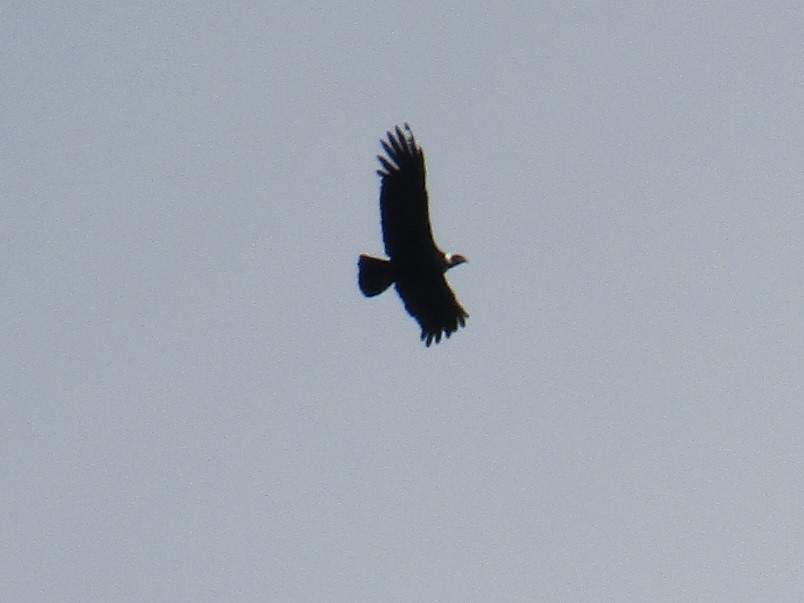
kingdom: Animalia
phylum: Chordata
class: Aves
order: Accipitriformes
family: Cathartidae
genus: Vultur
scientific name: Vultur gryphus
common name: Andean condor
